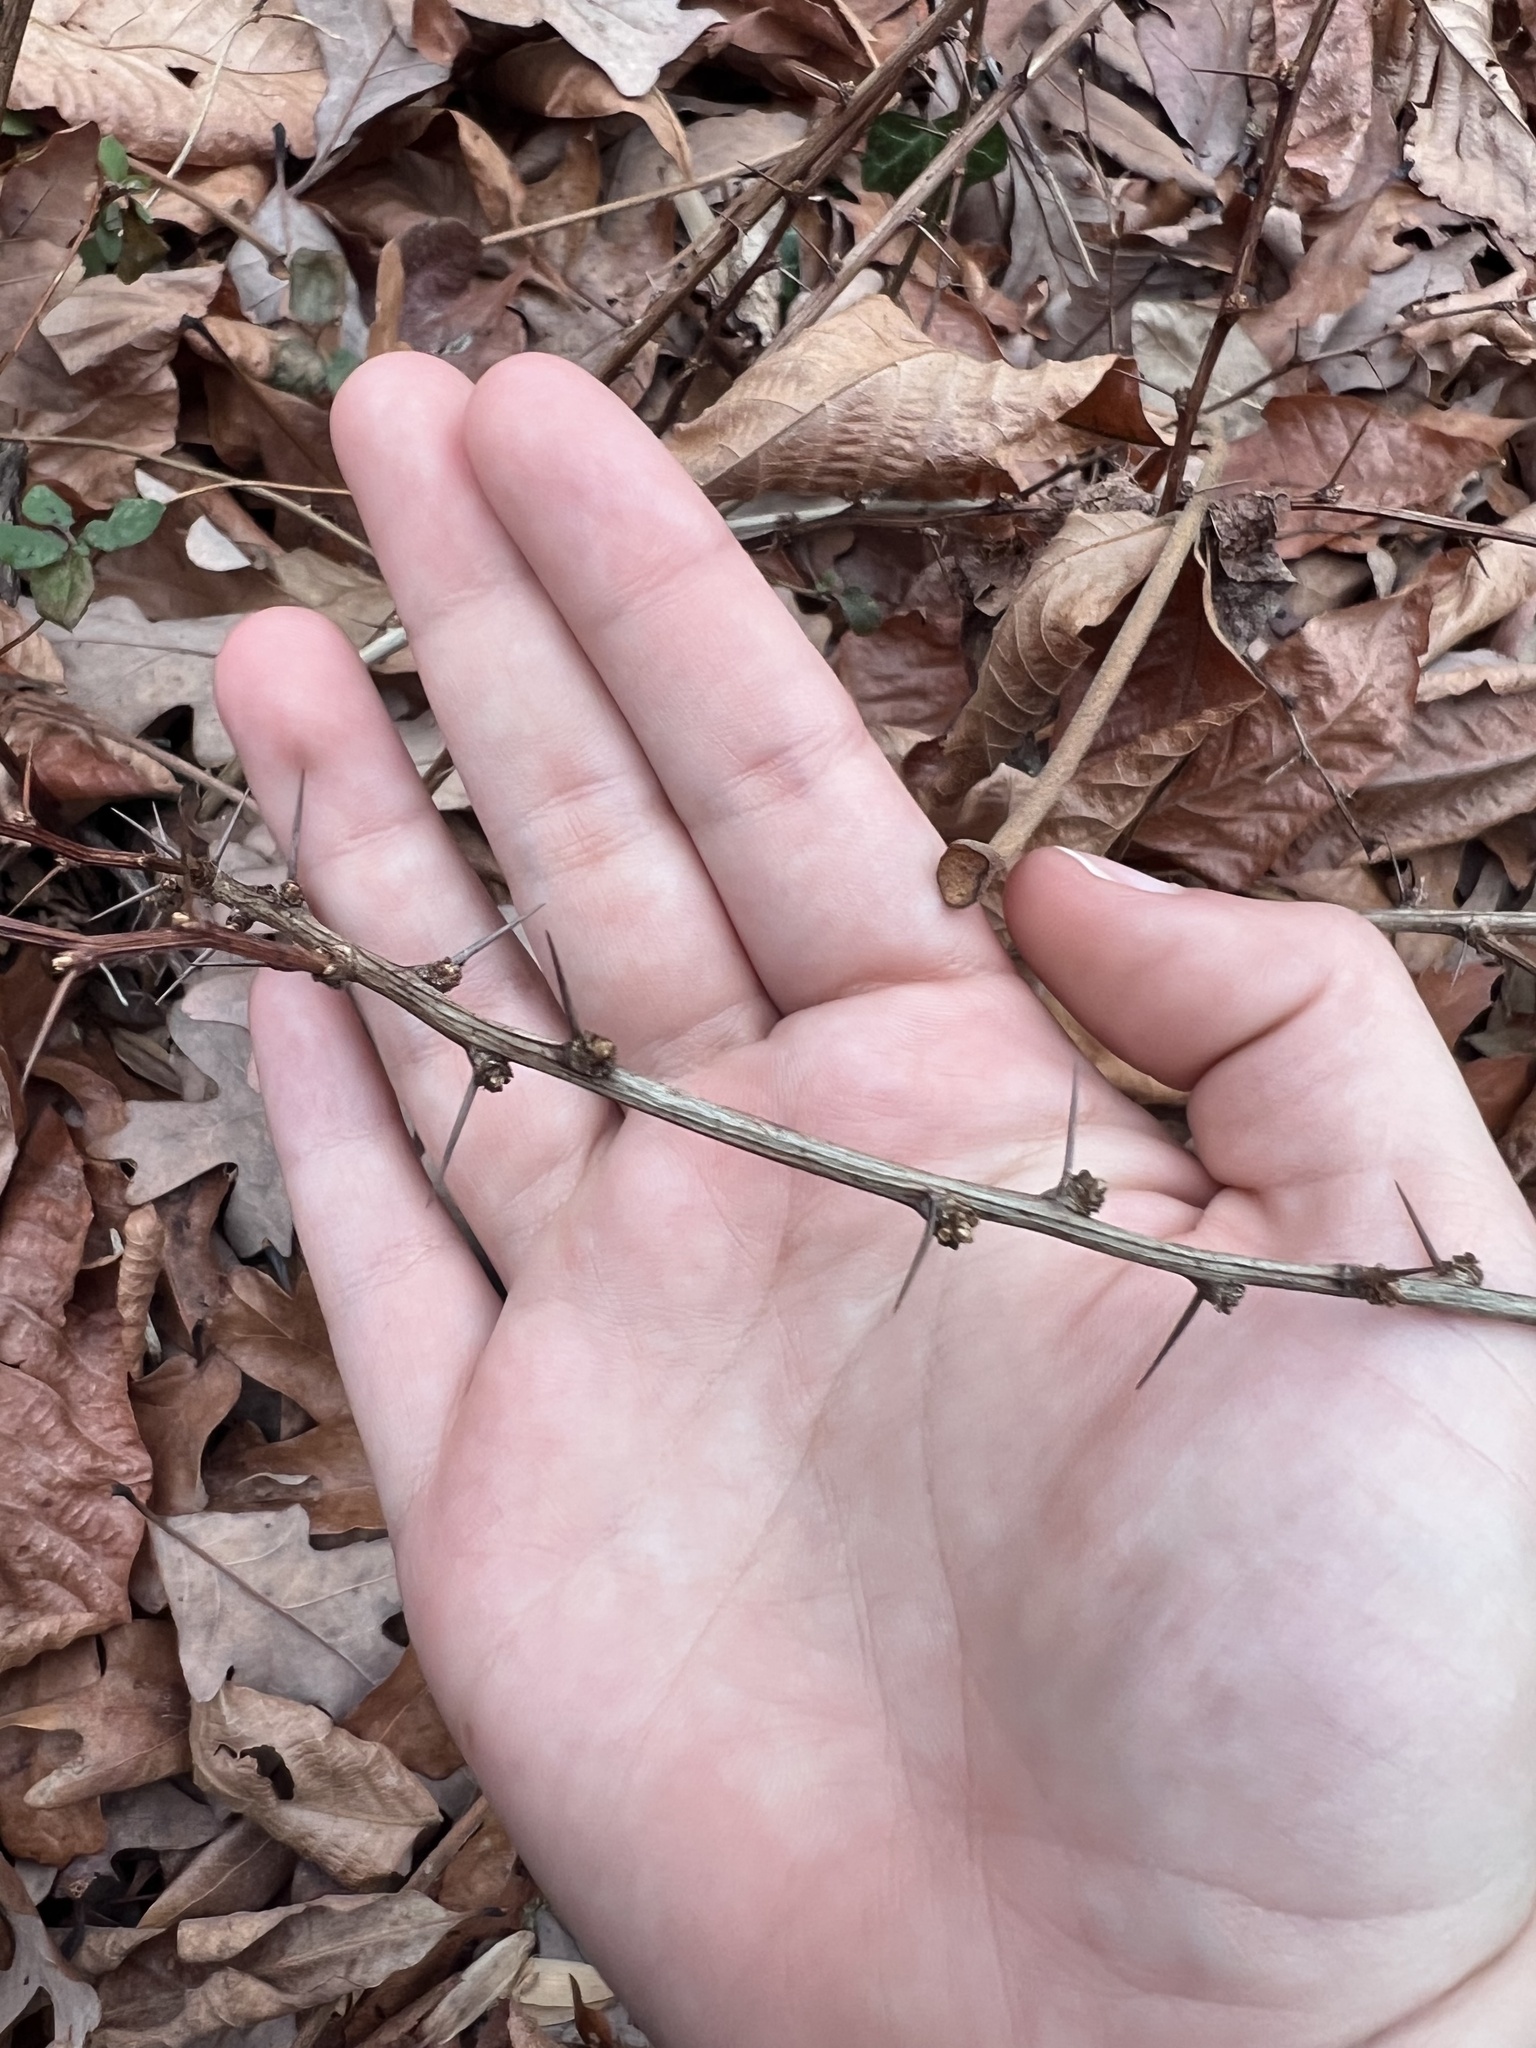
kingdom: Plantae
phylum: Tracheophyta
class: Magnoliopsida
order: Ranunculales
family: Berberidaceae
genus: Berberis
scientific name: Berberis thunbergii
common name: Japanese barberry
